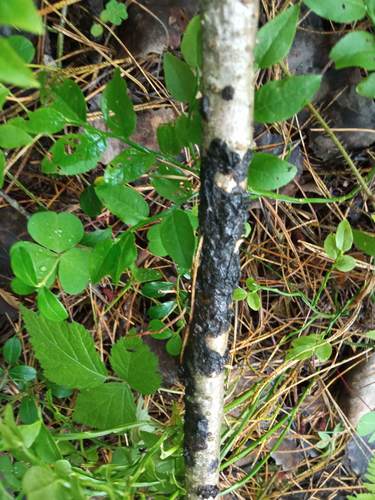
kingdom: Fungi
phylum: Basidiomycota
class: Agaricomycetes
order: Auriculariales
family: Auriculariaceae
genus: Exidia
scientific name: Exidia
